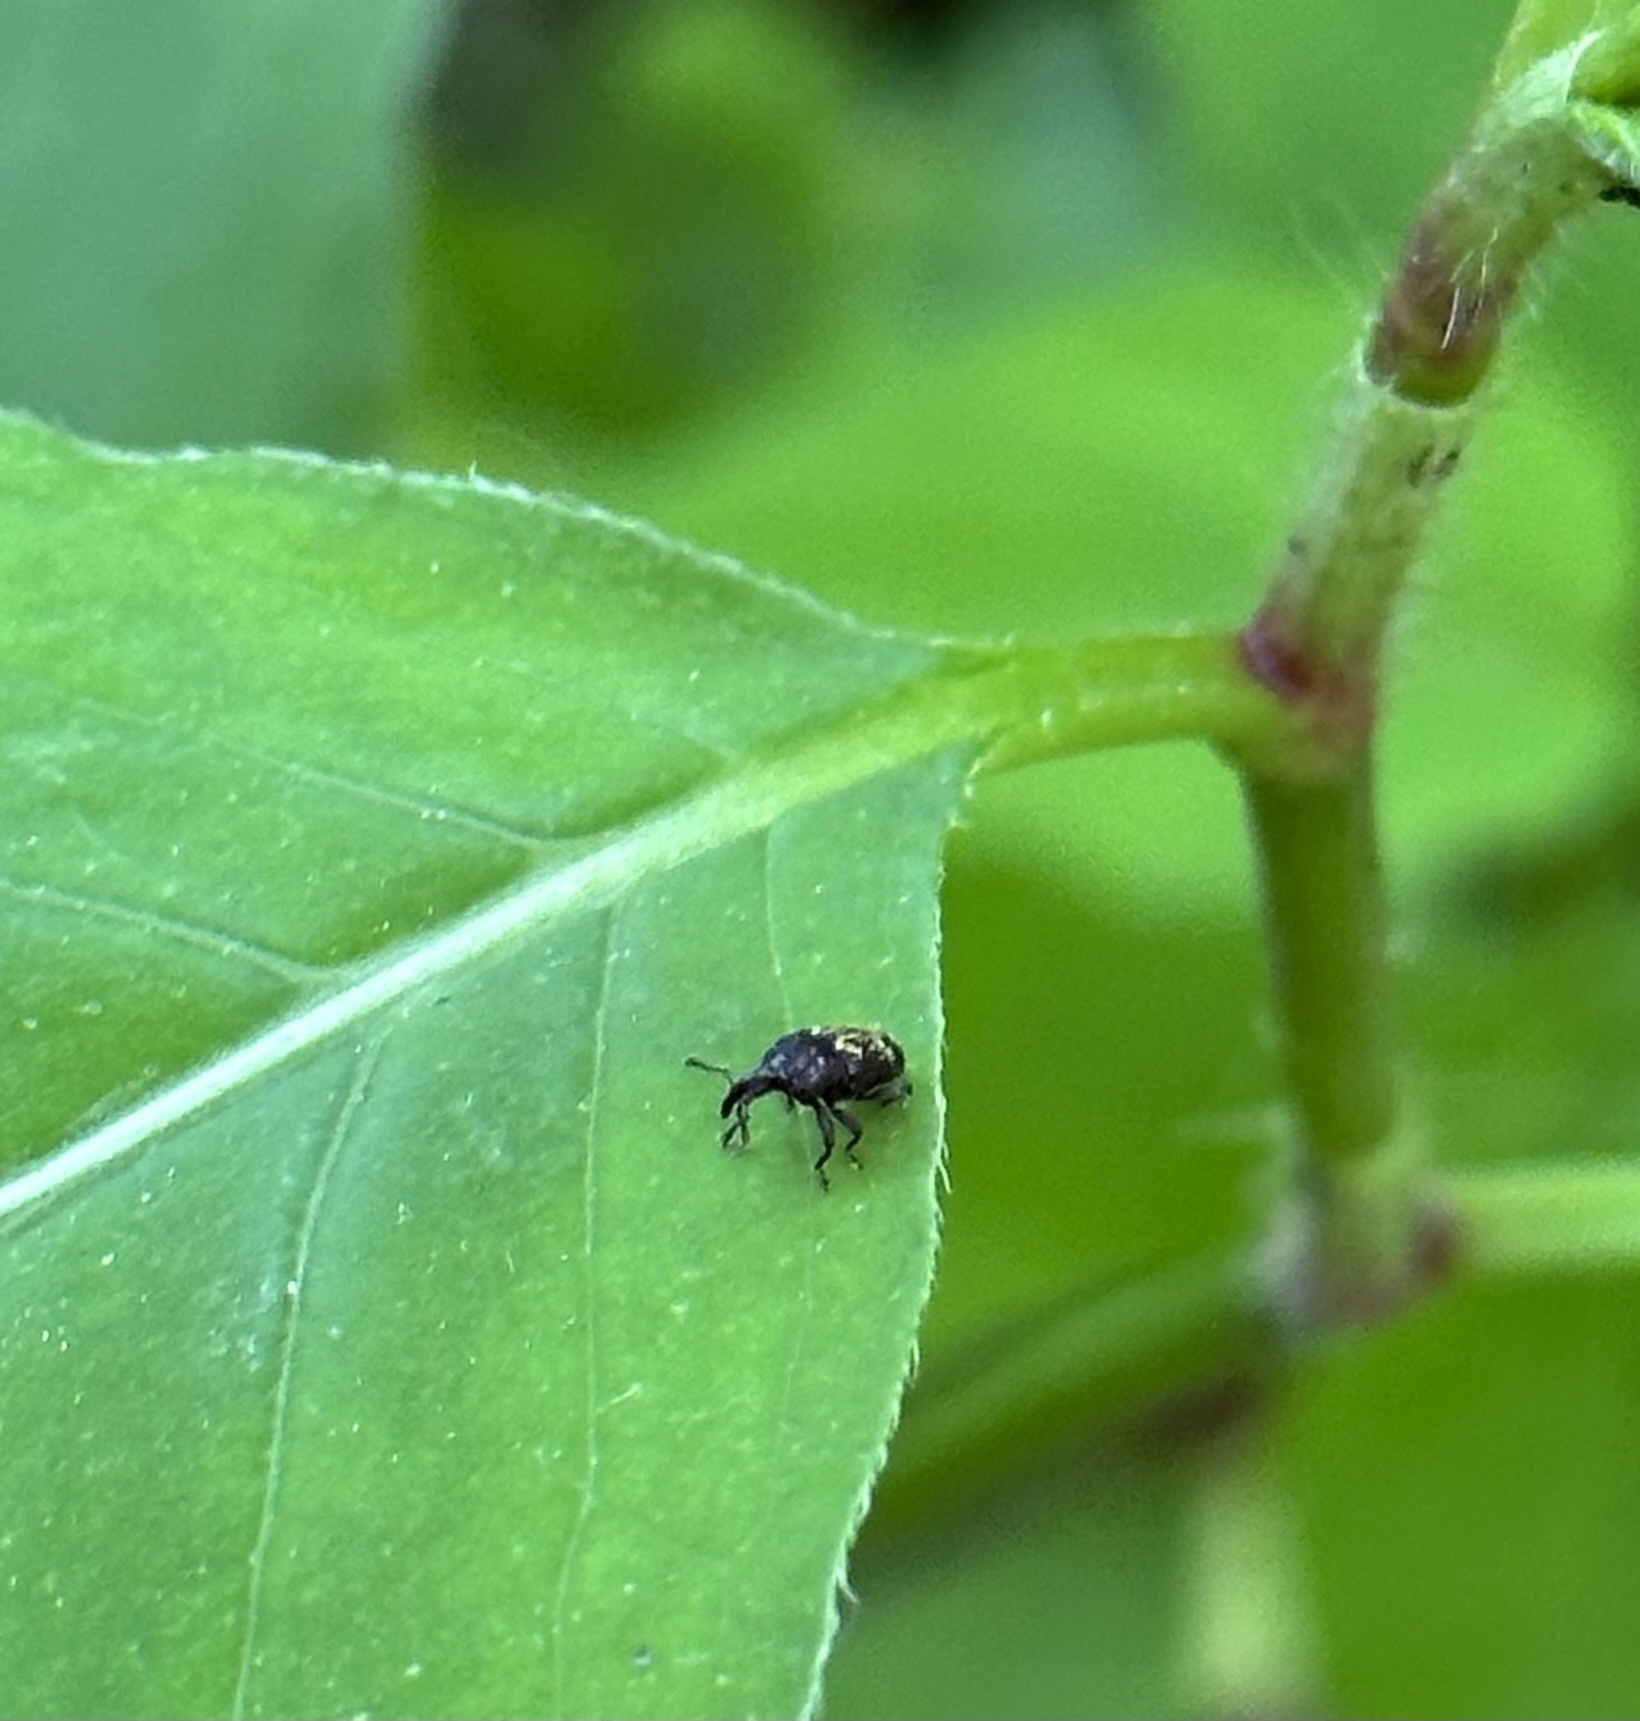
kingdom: Animalia
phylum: Arthropoda
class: Insecta
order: Coleoptera
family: Curculionidae
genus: Glyptobaris
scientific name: Glyptobaris lecontei
